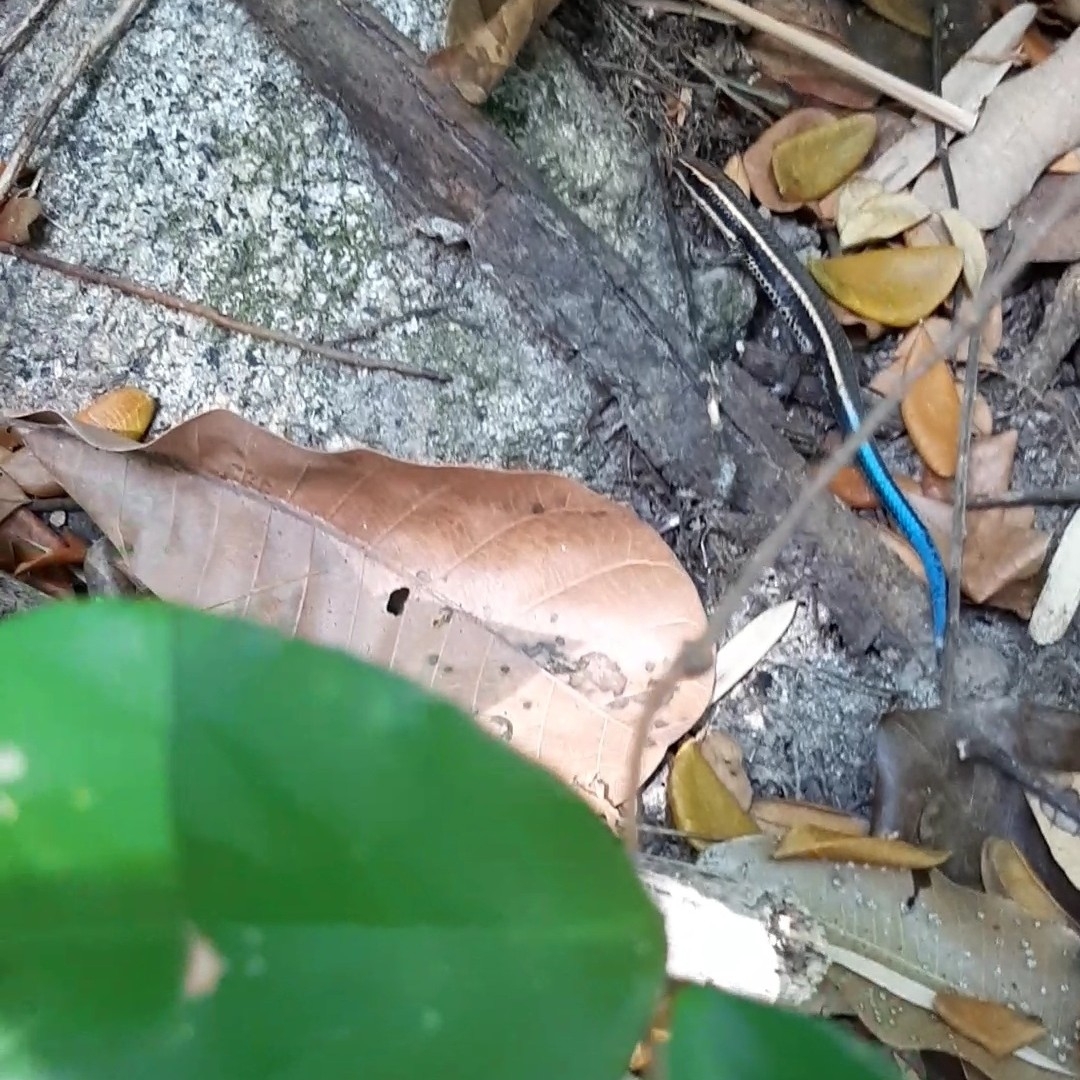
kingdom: Animalia
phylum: Chordata
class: Squamata
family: Gymnophthalmidae
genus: Tretioscincus
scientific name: Tretioscincus bifasciatus
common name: Rio magdalena tegu
